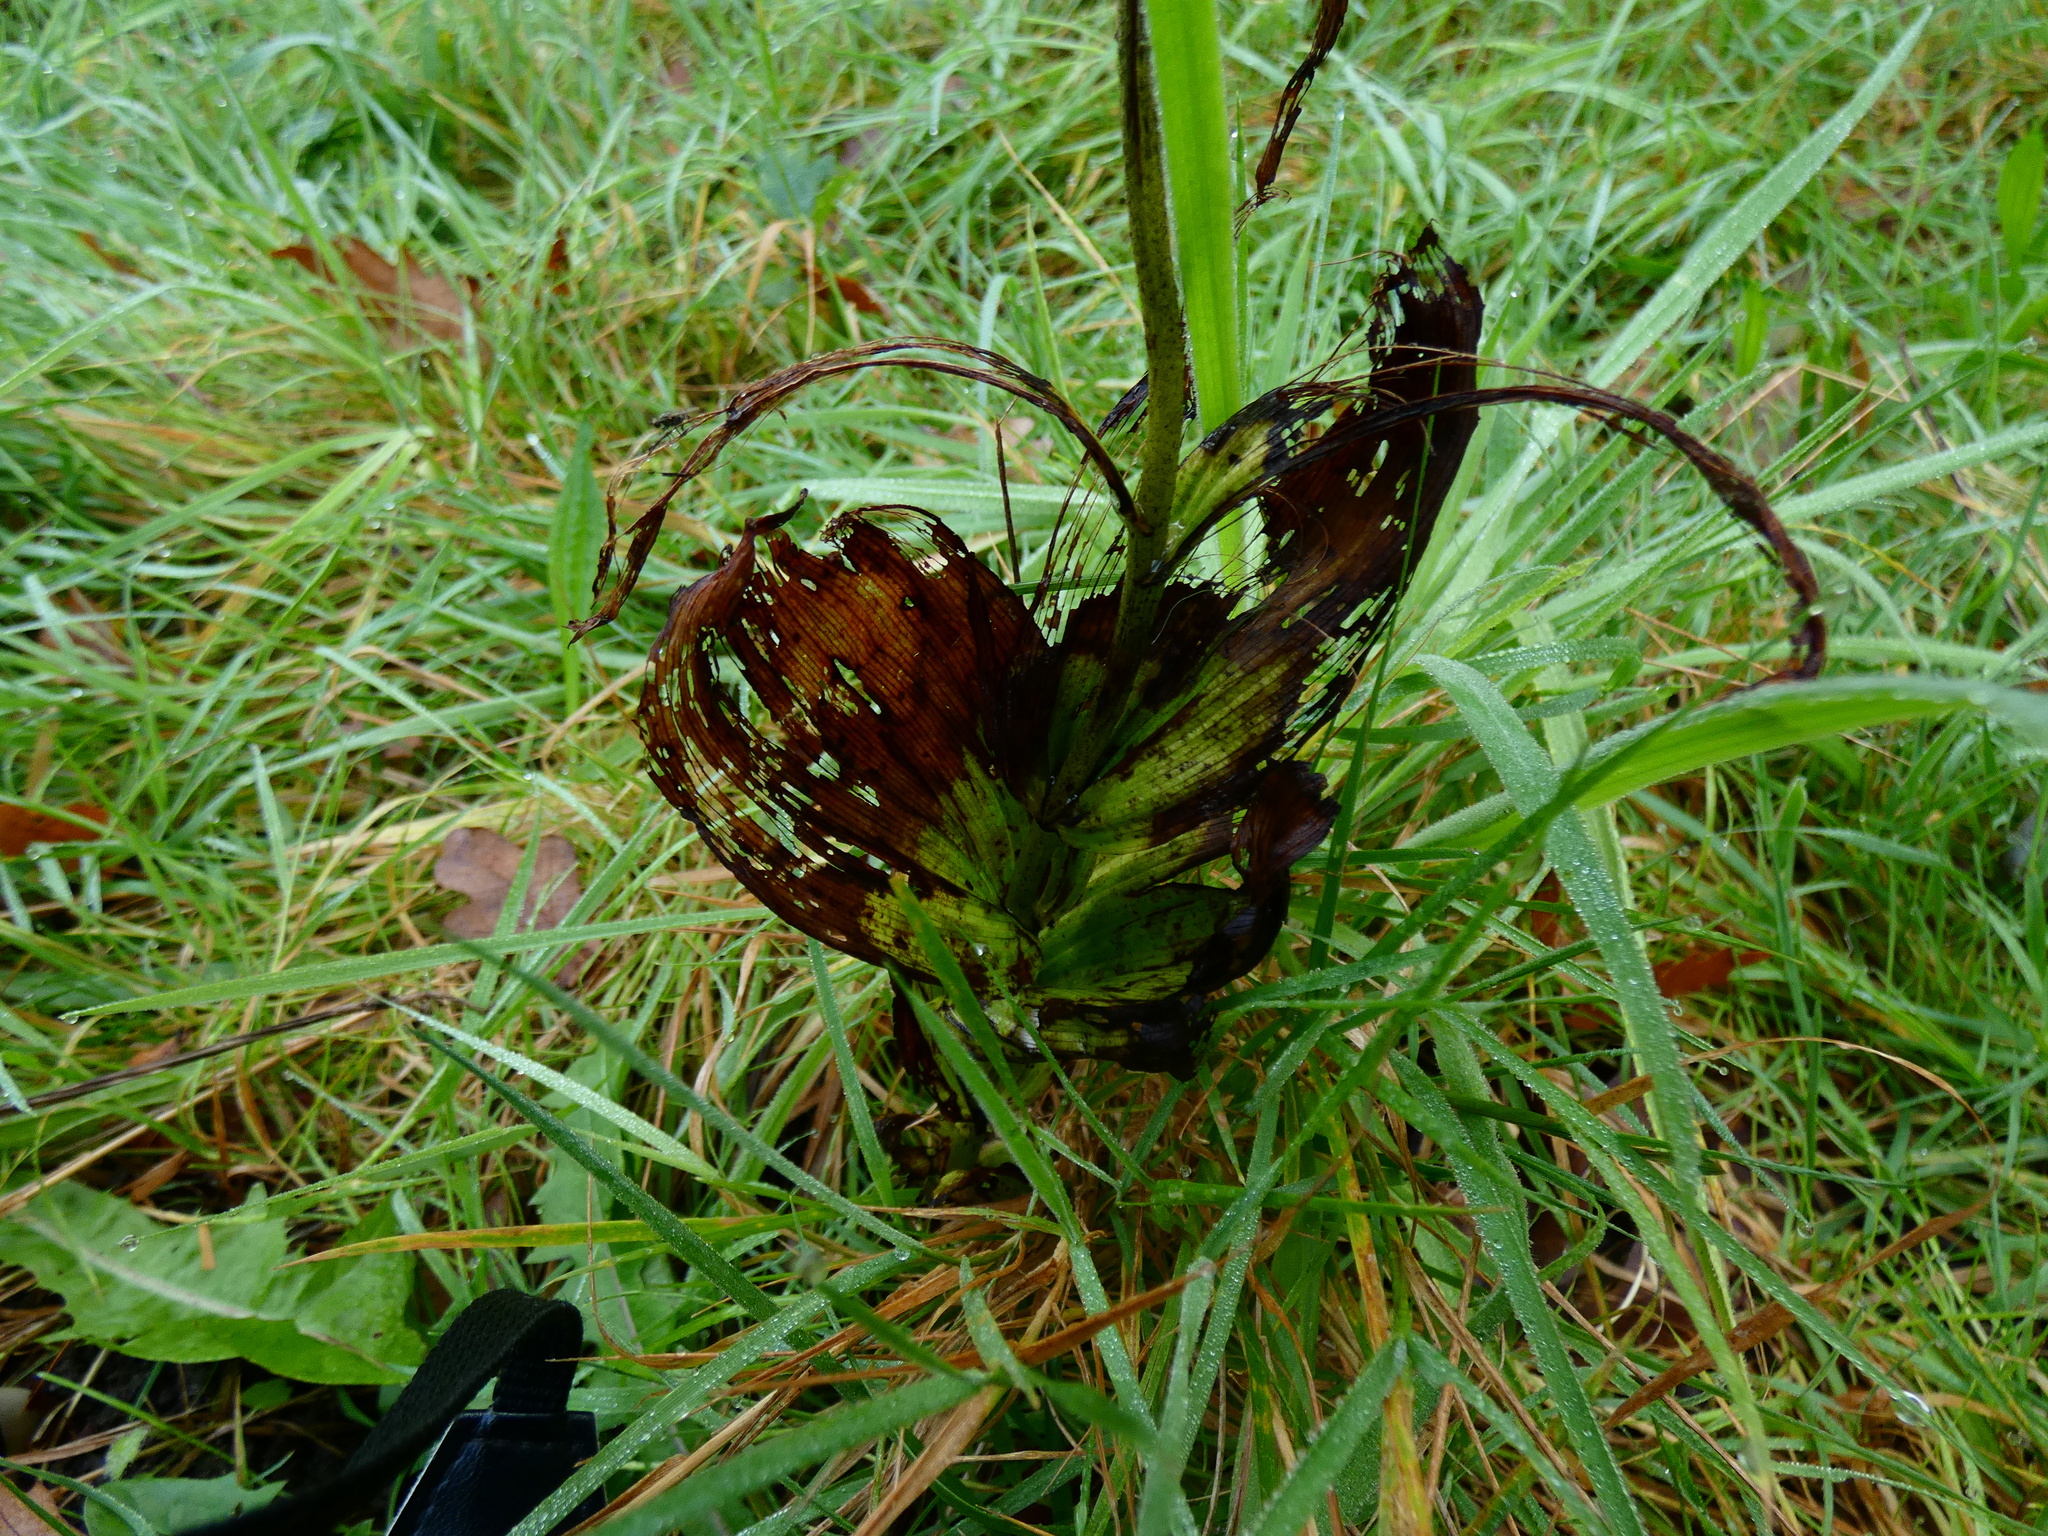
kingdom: Plantae
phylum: Tracheophyta
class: Liliopsida
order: Asparagales
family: Orchidaceae
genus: Epipactis
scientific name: Epipactis helleborine
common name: Broad-leaved helleborine
